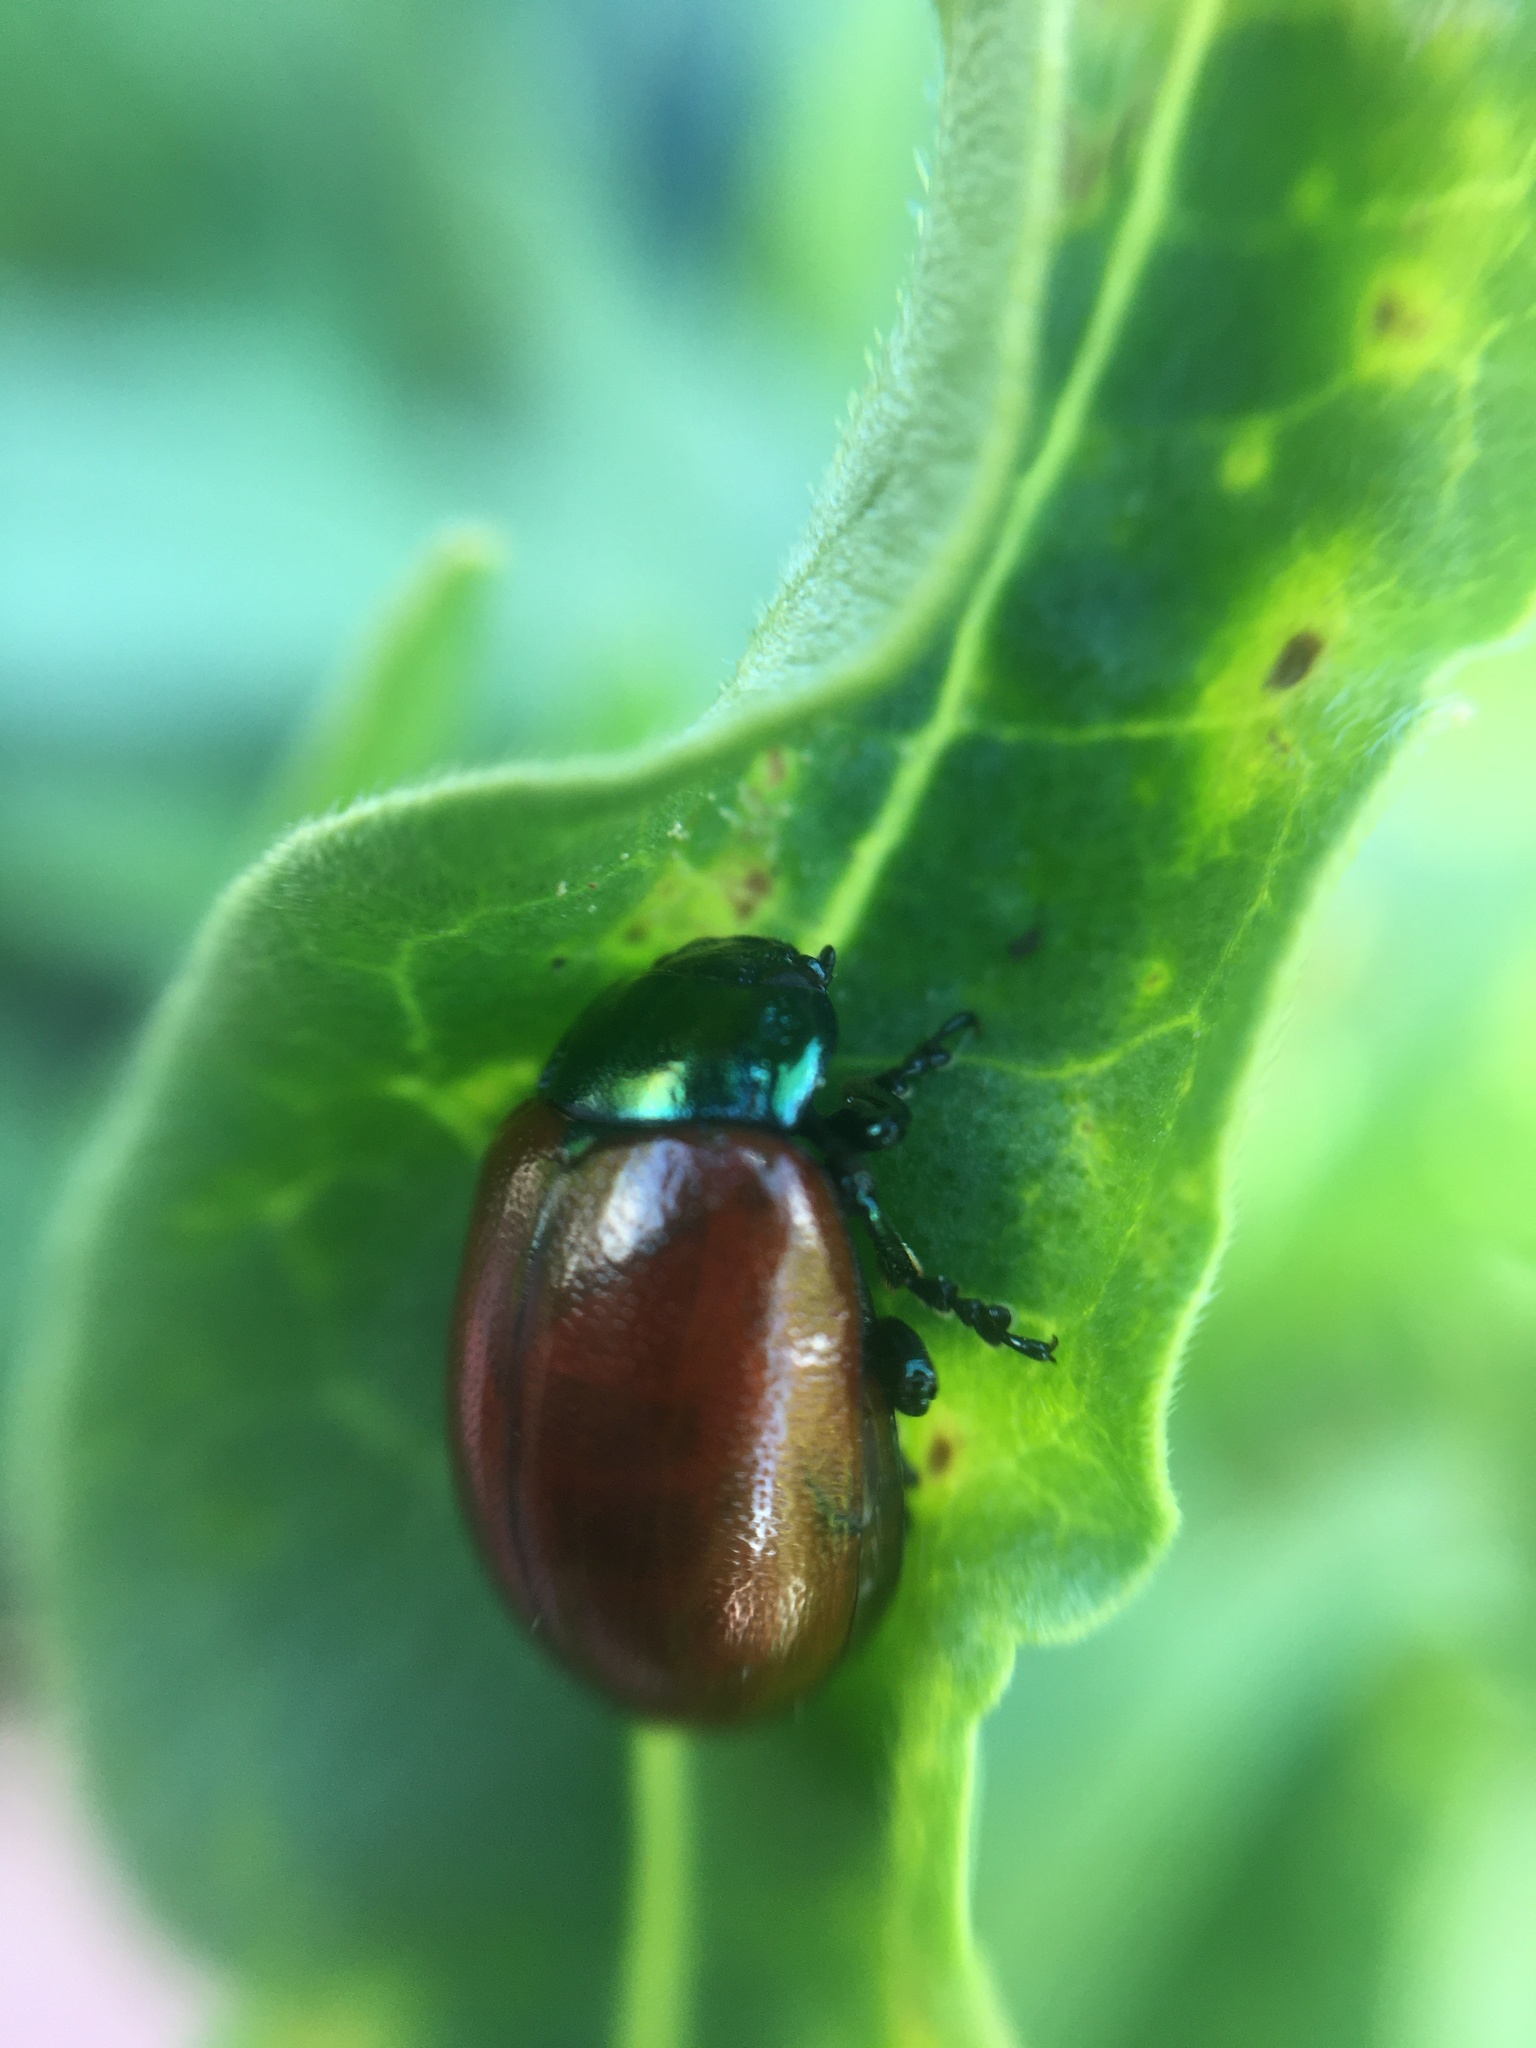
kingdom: Animalia
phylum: Arthropoda
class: Insecta
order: Coleoptera
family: Chrysomelidae
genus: Chrysomela
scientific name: Chrysomela polita
